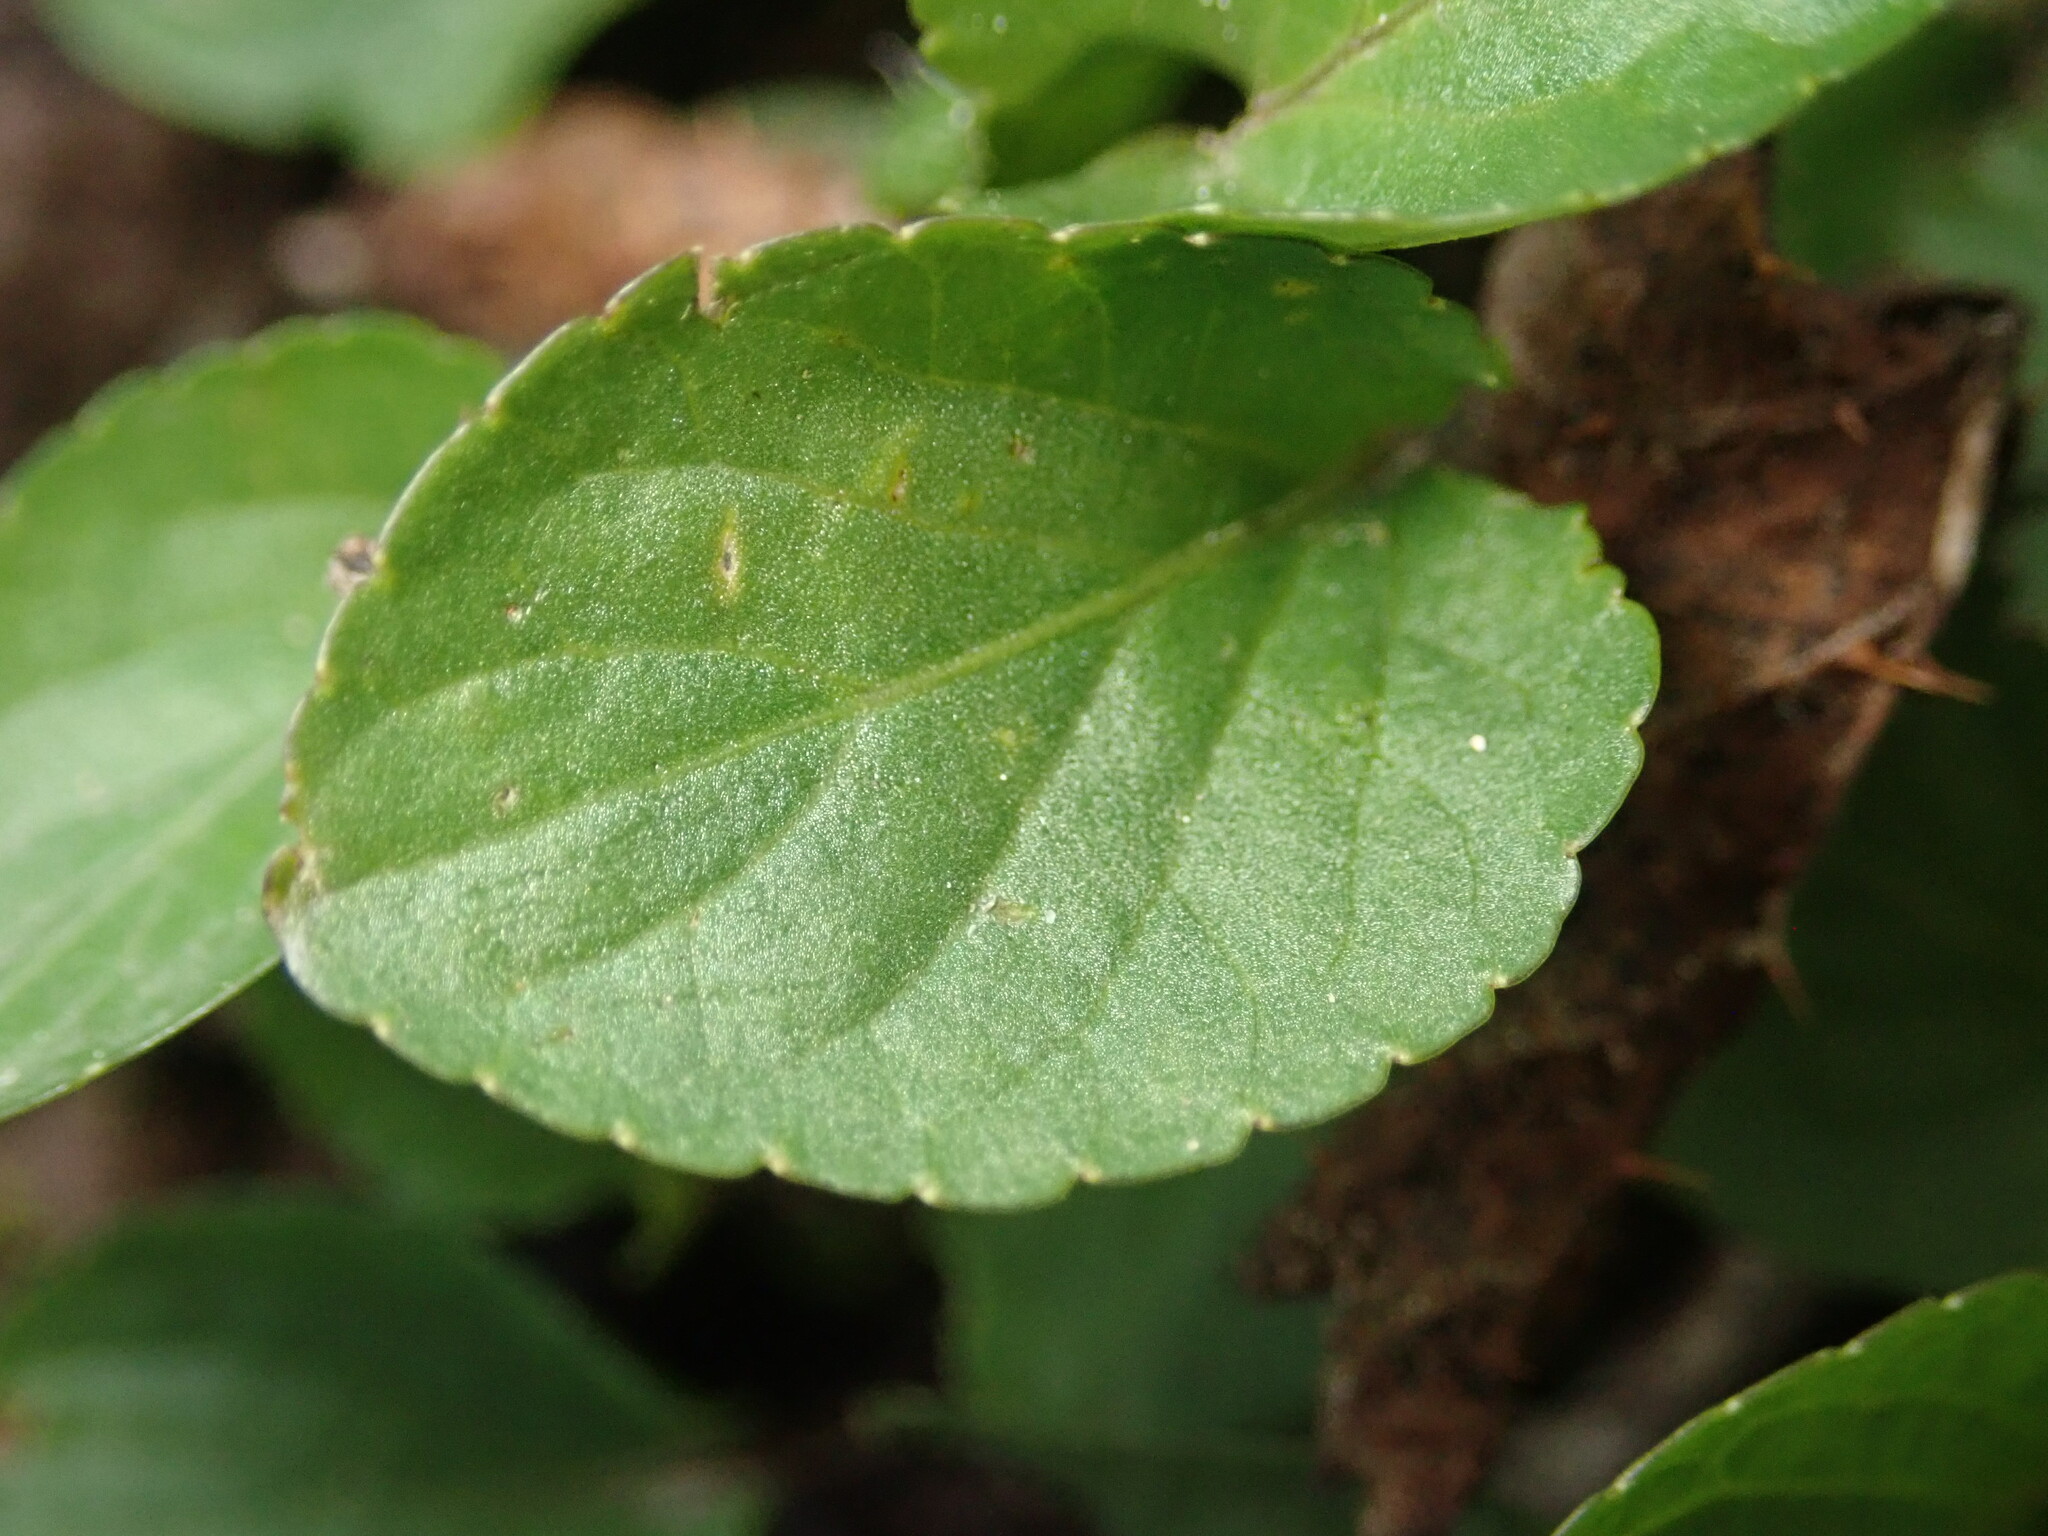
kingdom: Plantae
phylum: Tracheophyta
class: Magnoliopsida
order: Malpighiales
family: Violaceae
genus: Viola
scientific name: Viola adunca
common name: Sand violet
